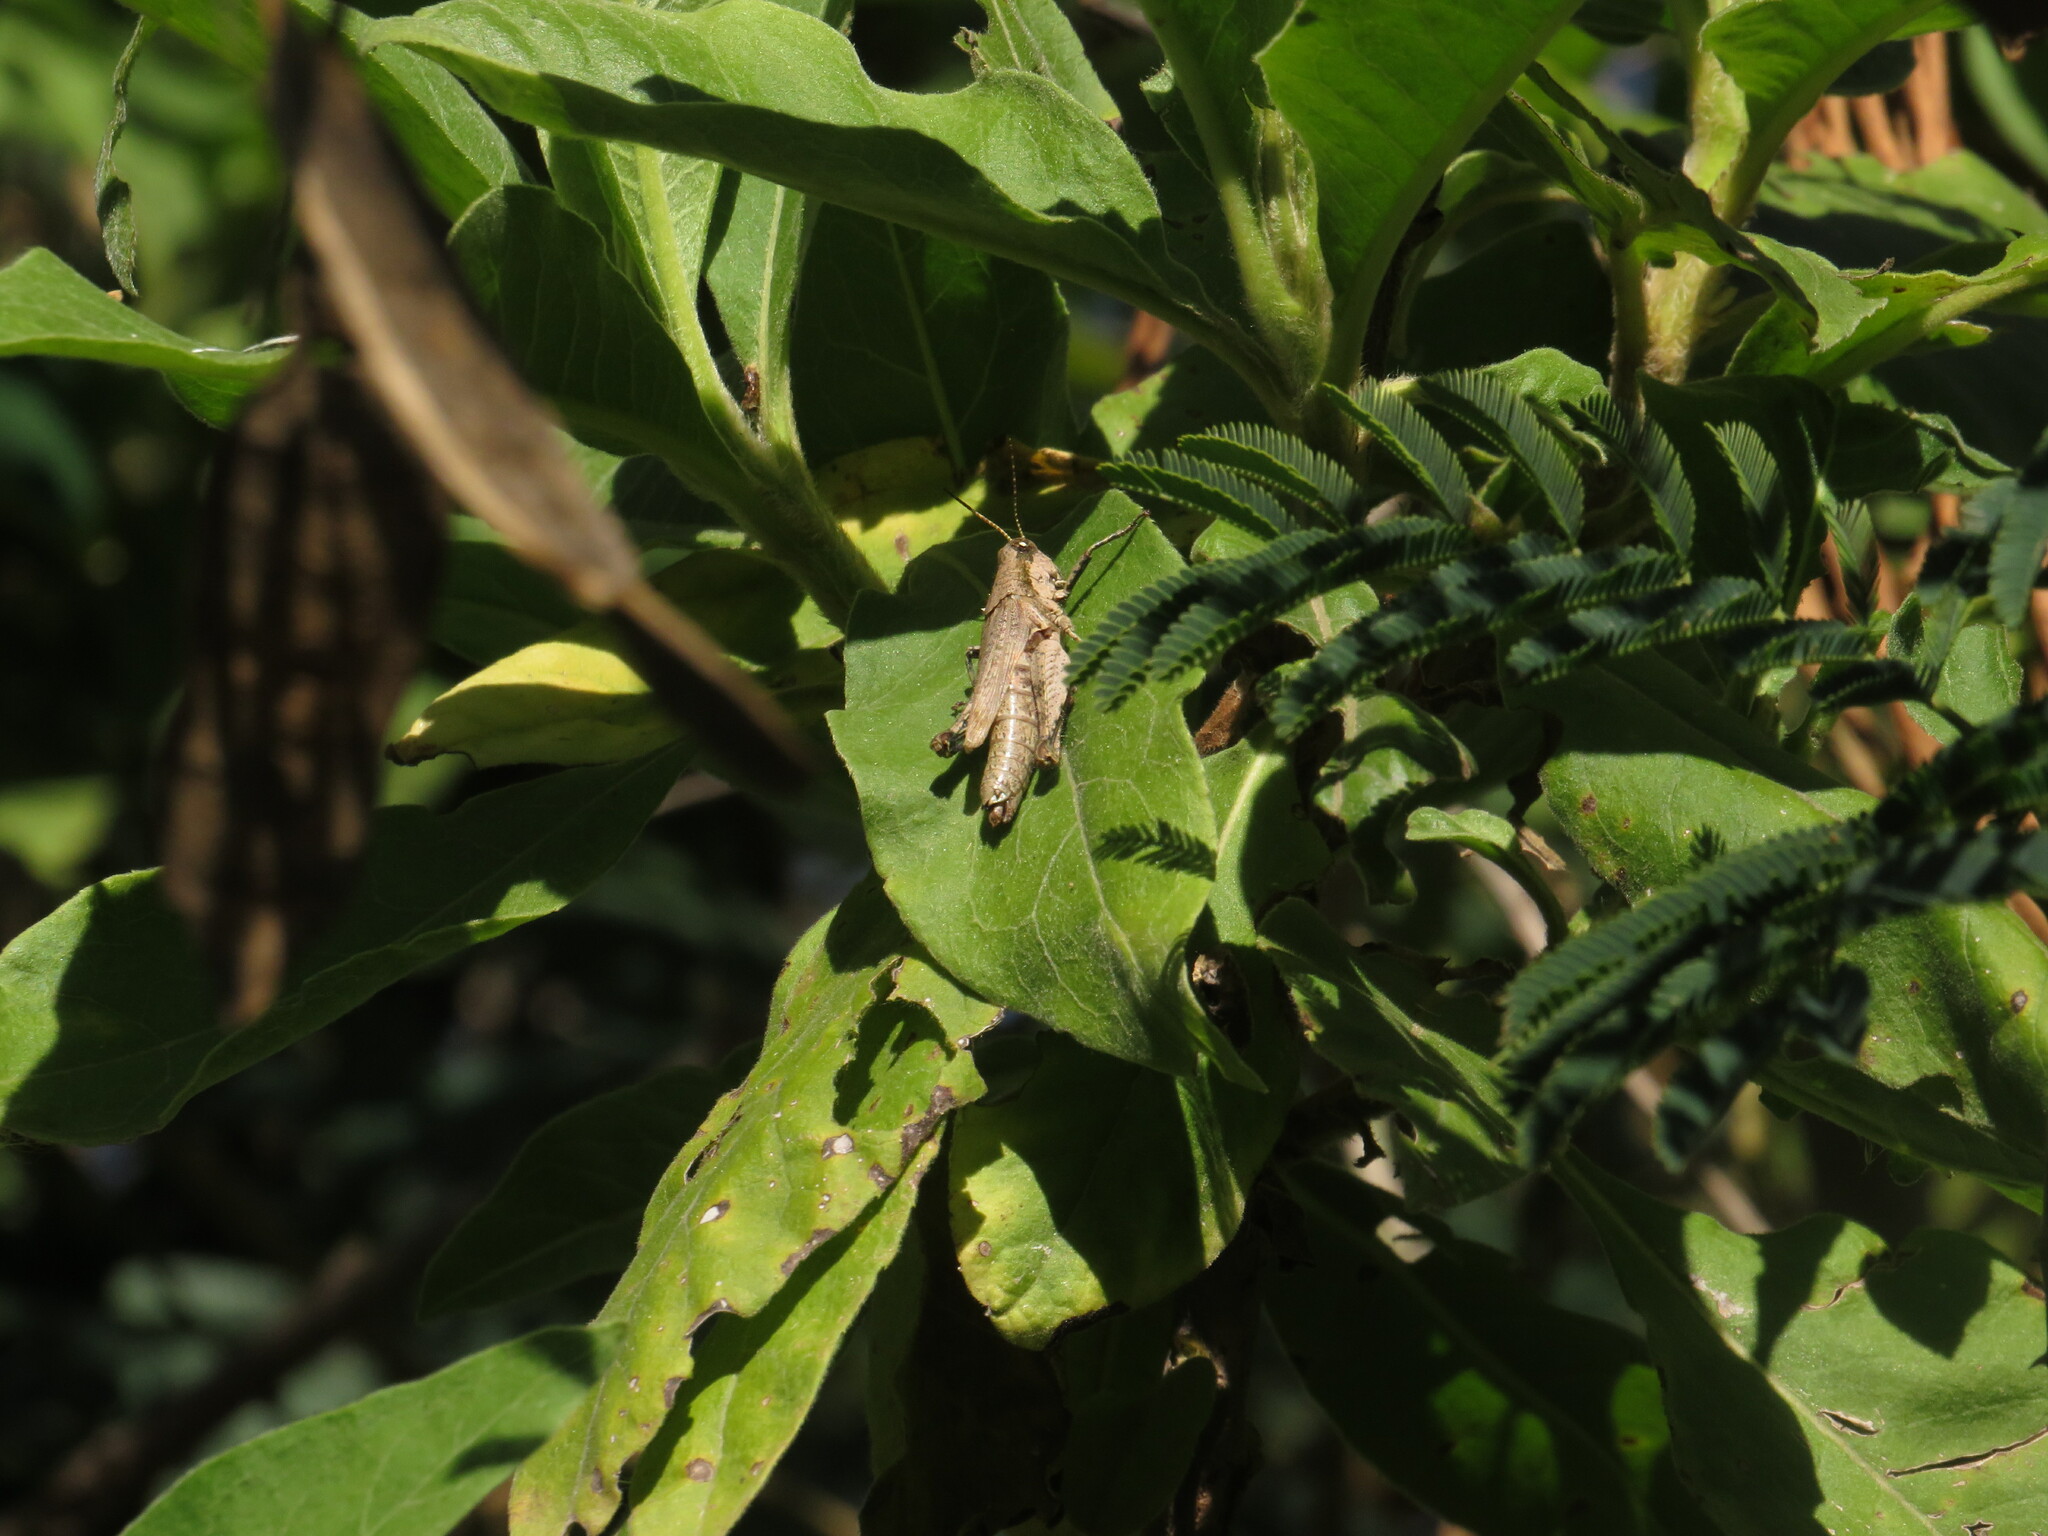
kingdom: Animalia
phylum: Arthropoda
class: Insecta
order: Orthoptera
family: Acrididae
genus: Ronderosia
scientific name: Ronderosia bergii
